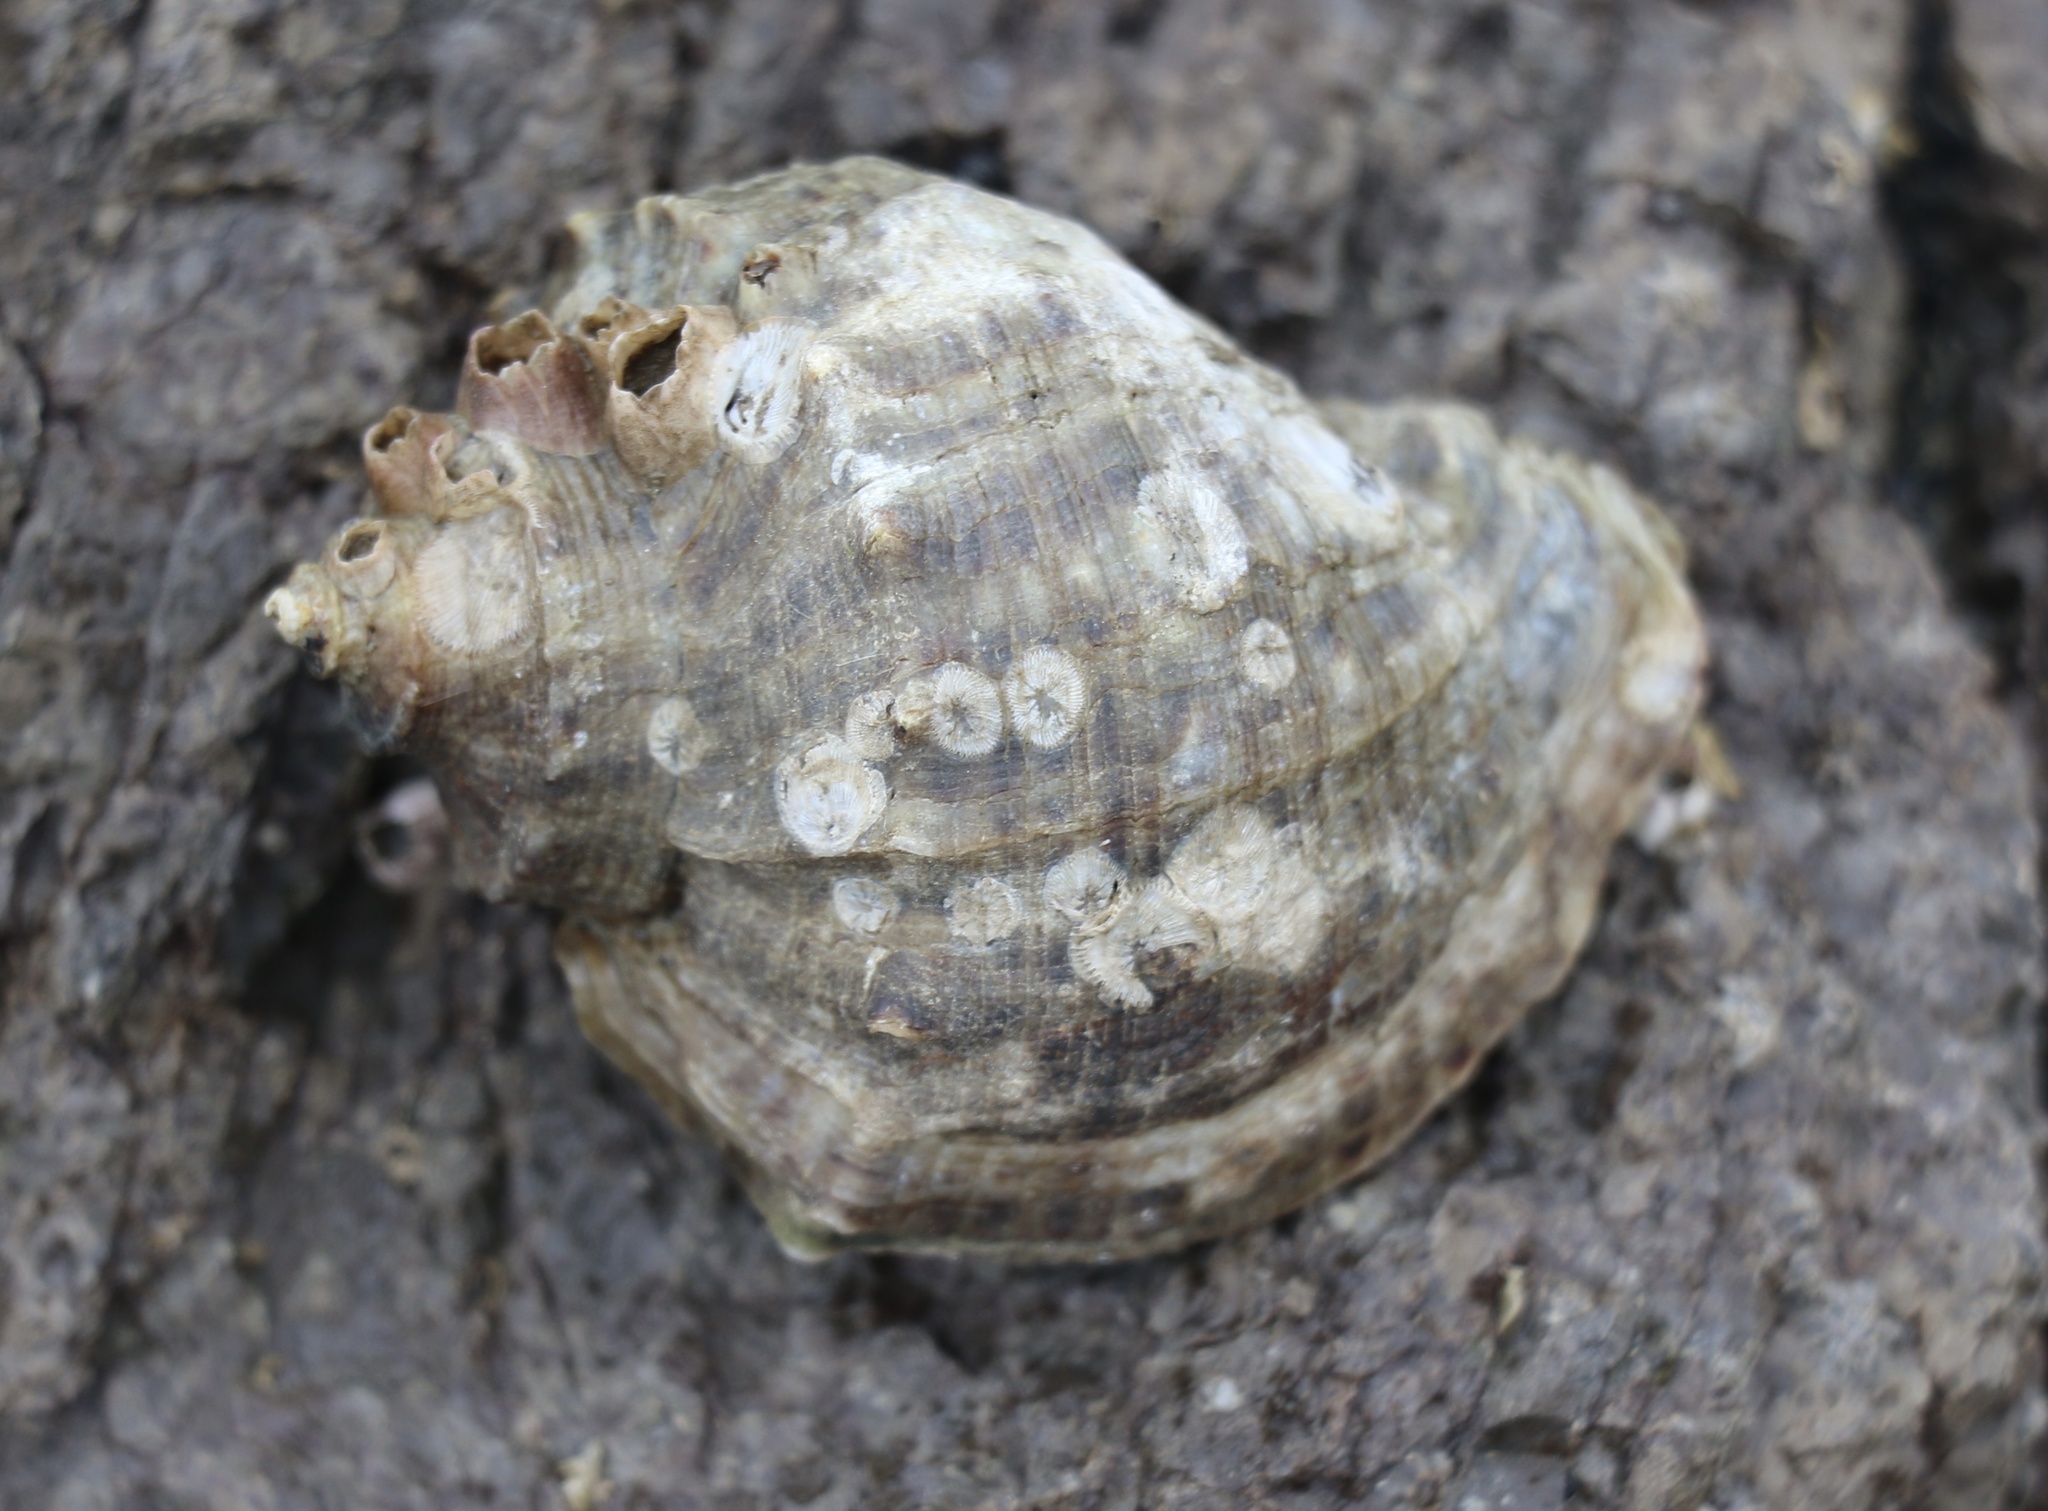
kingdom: Animalia
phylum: Mollusca
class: Gastropoda
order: Neogastropoda
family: Muricidae
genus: Rapana
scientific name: Rapana venosa
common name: Veined rapa whelk
